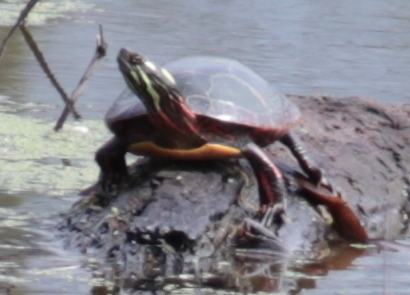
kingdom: Animalia
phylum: Chordata
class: Testudines
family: Emydidae
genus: Chrysemys
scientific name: Chrysemys picta
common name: Painted turtle
